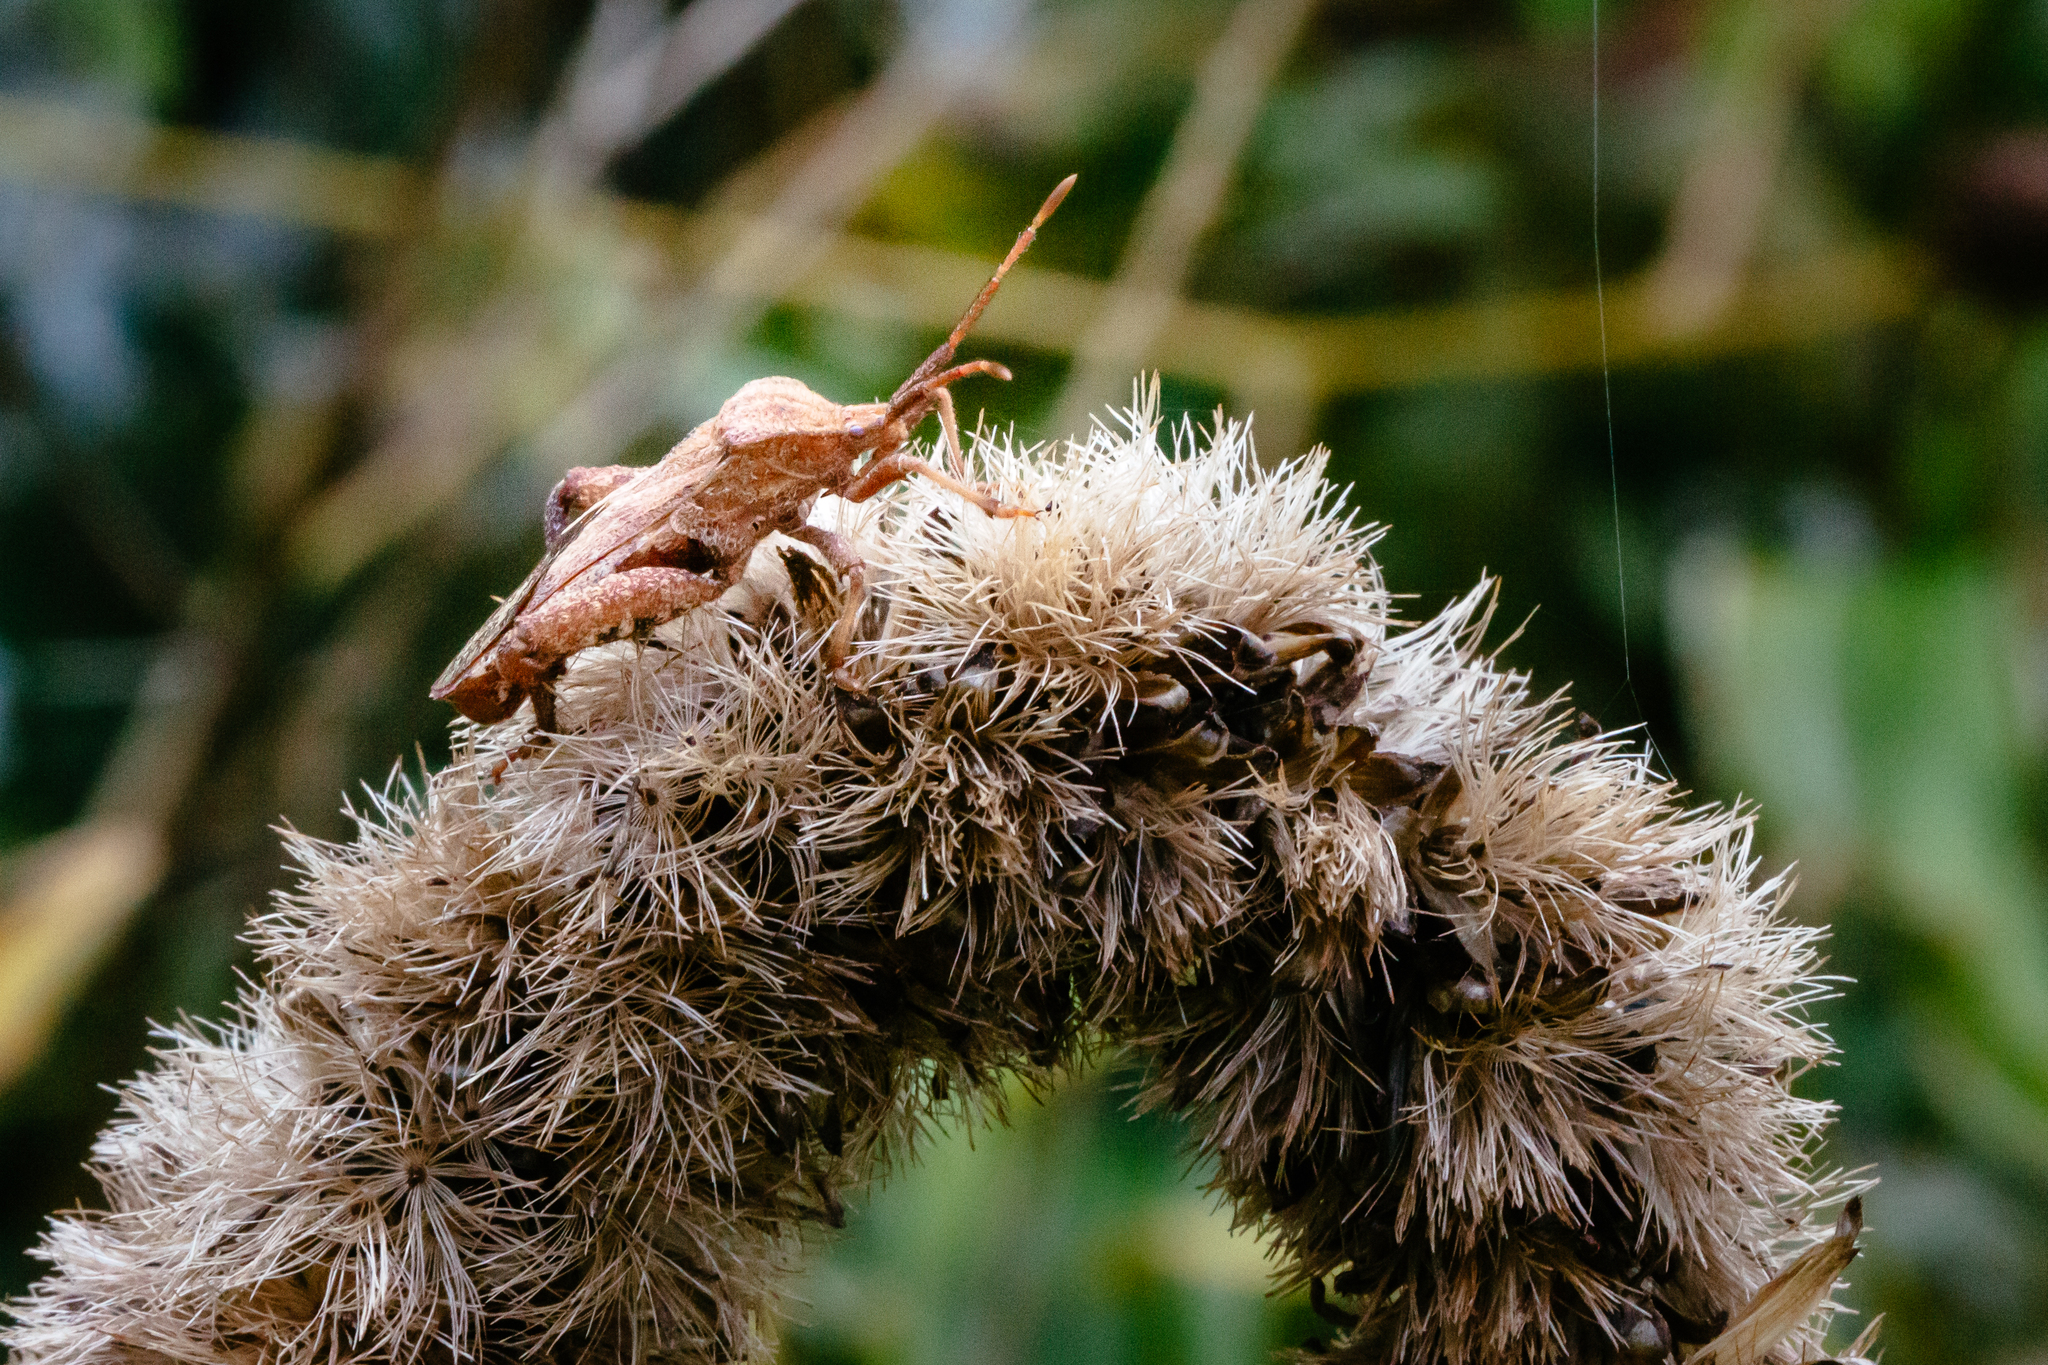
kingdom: Animalia
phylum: Arthropoda
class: Insecta
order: Hemiptera
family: Coreidae
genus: Piezogaster
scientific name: Piezogaster calcarator
